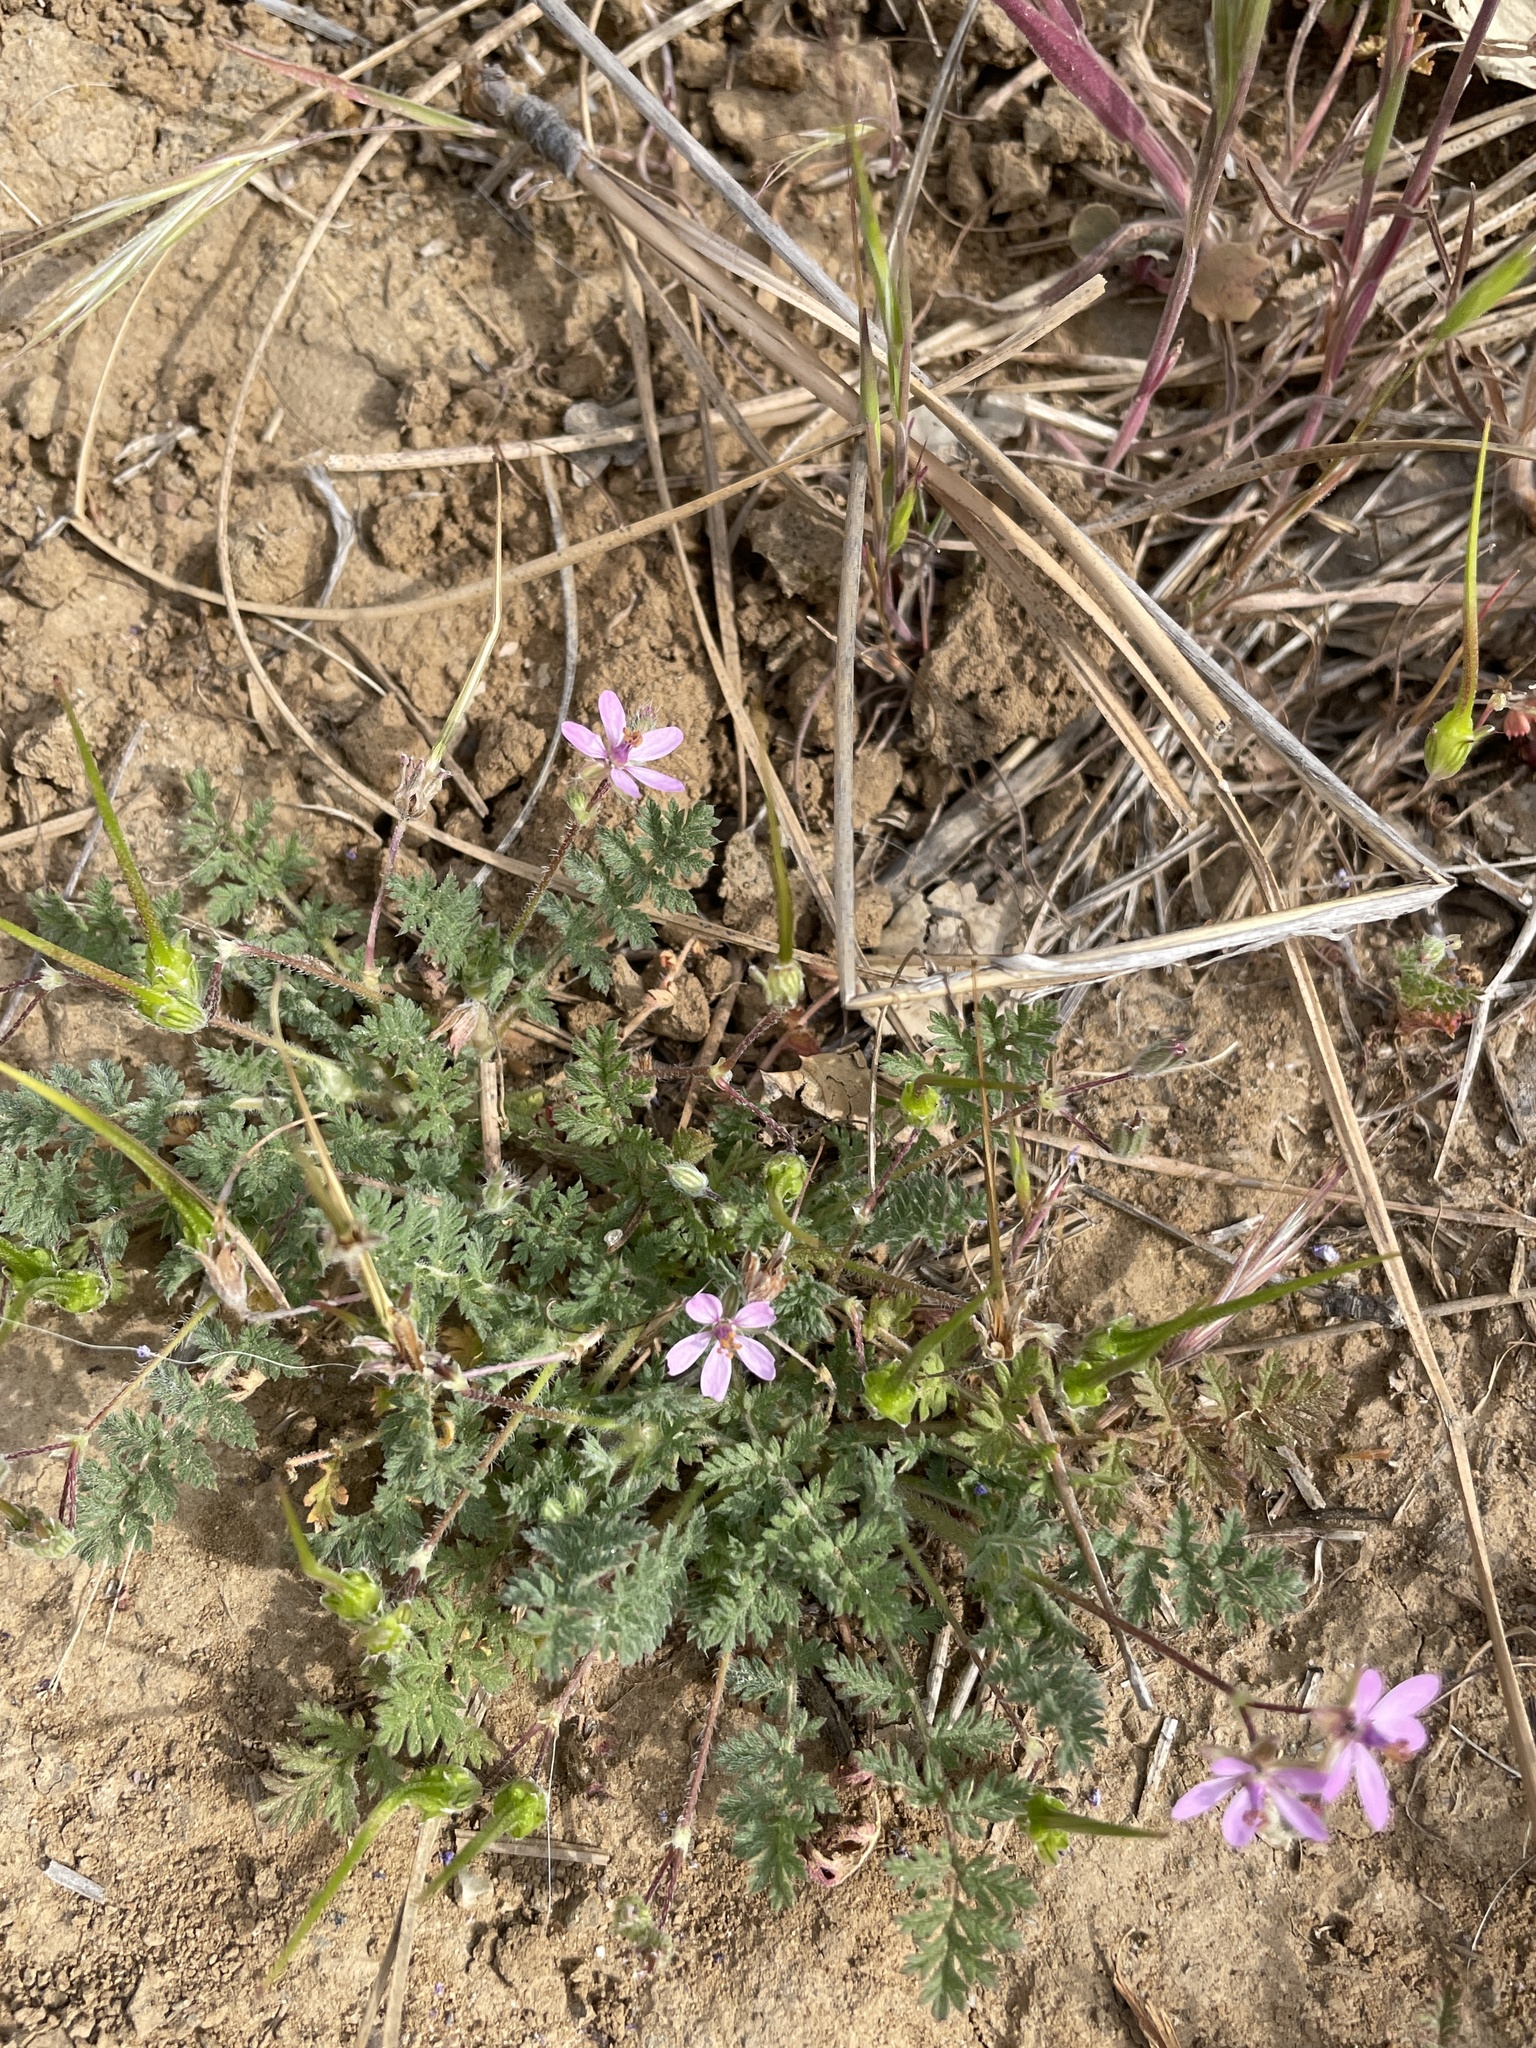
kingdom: Plantae
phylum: Tracheophyta
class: Magnoliopsida
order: Geraniales
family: Geraniaceae
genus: Erodium
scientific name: Erodium cicutarium
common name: Common stork's-bill
